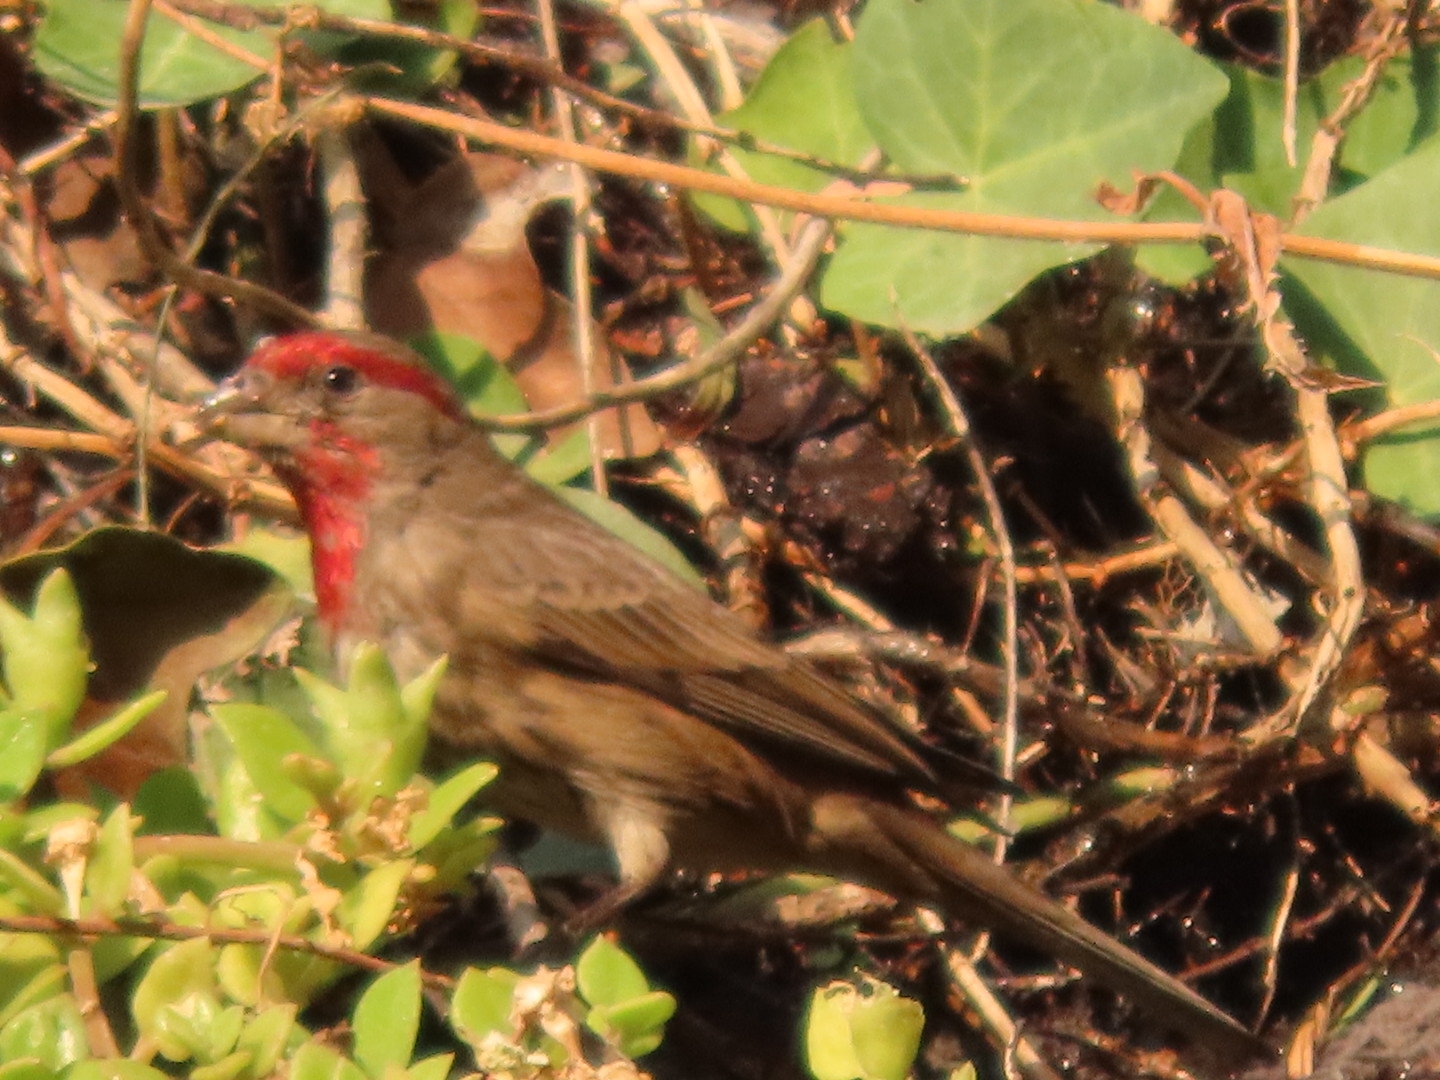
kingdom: Animalia
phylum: Chordata
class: Aves
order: Passeriformes
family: Fringillidae
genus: Haemorhous
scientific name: Haemorhous mexicanus
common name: House finch
